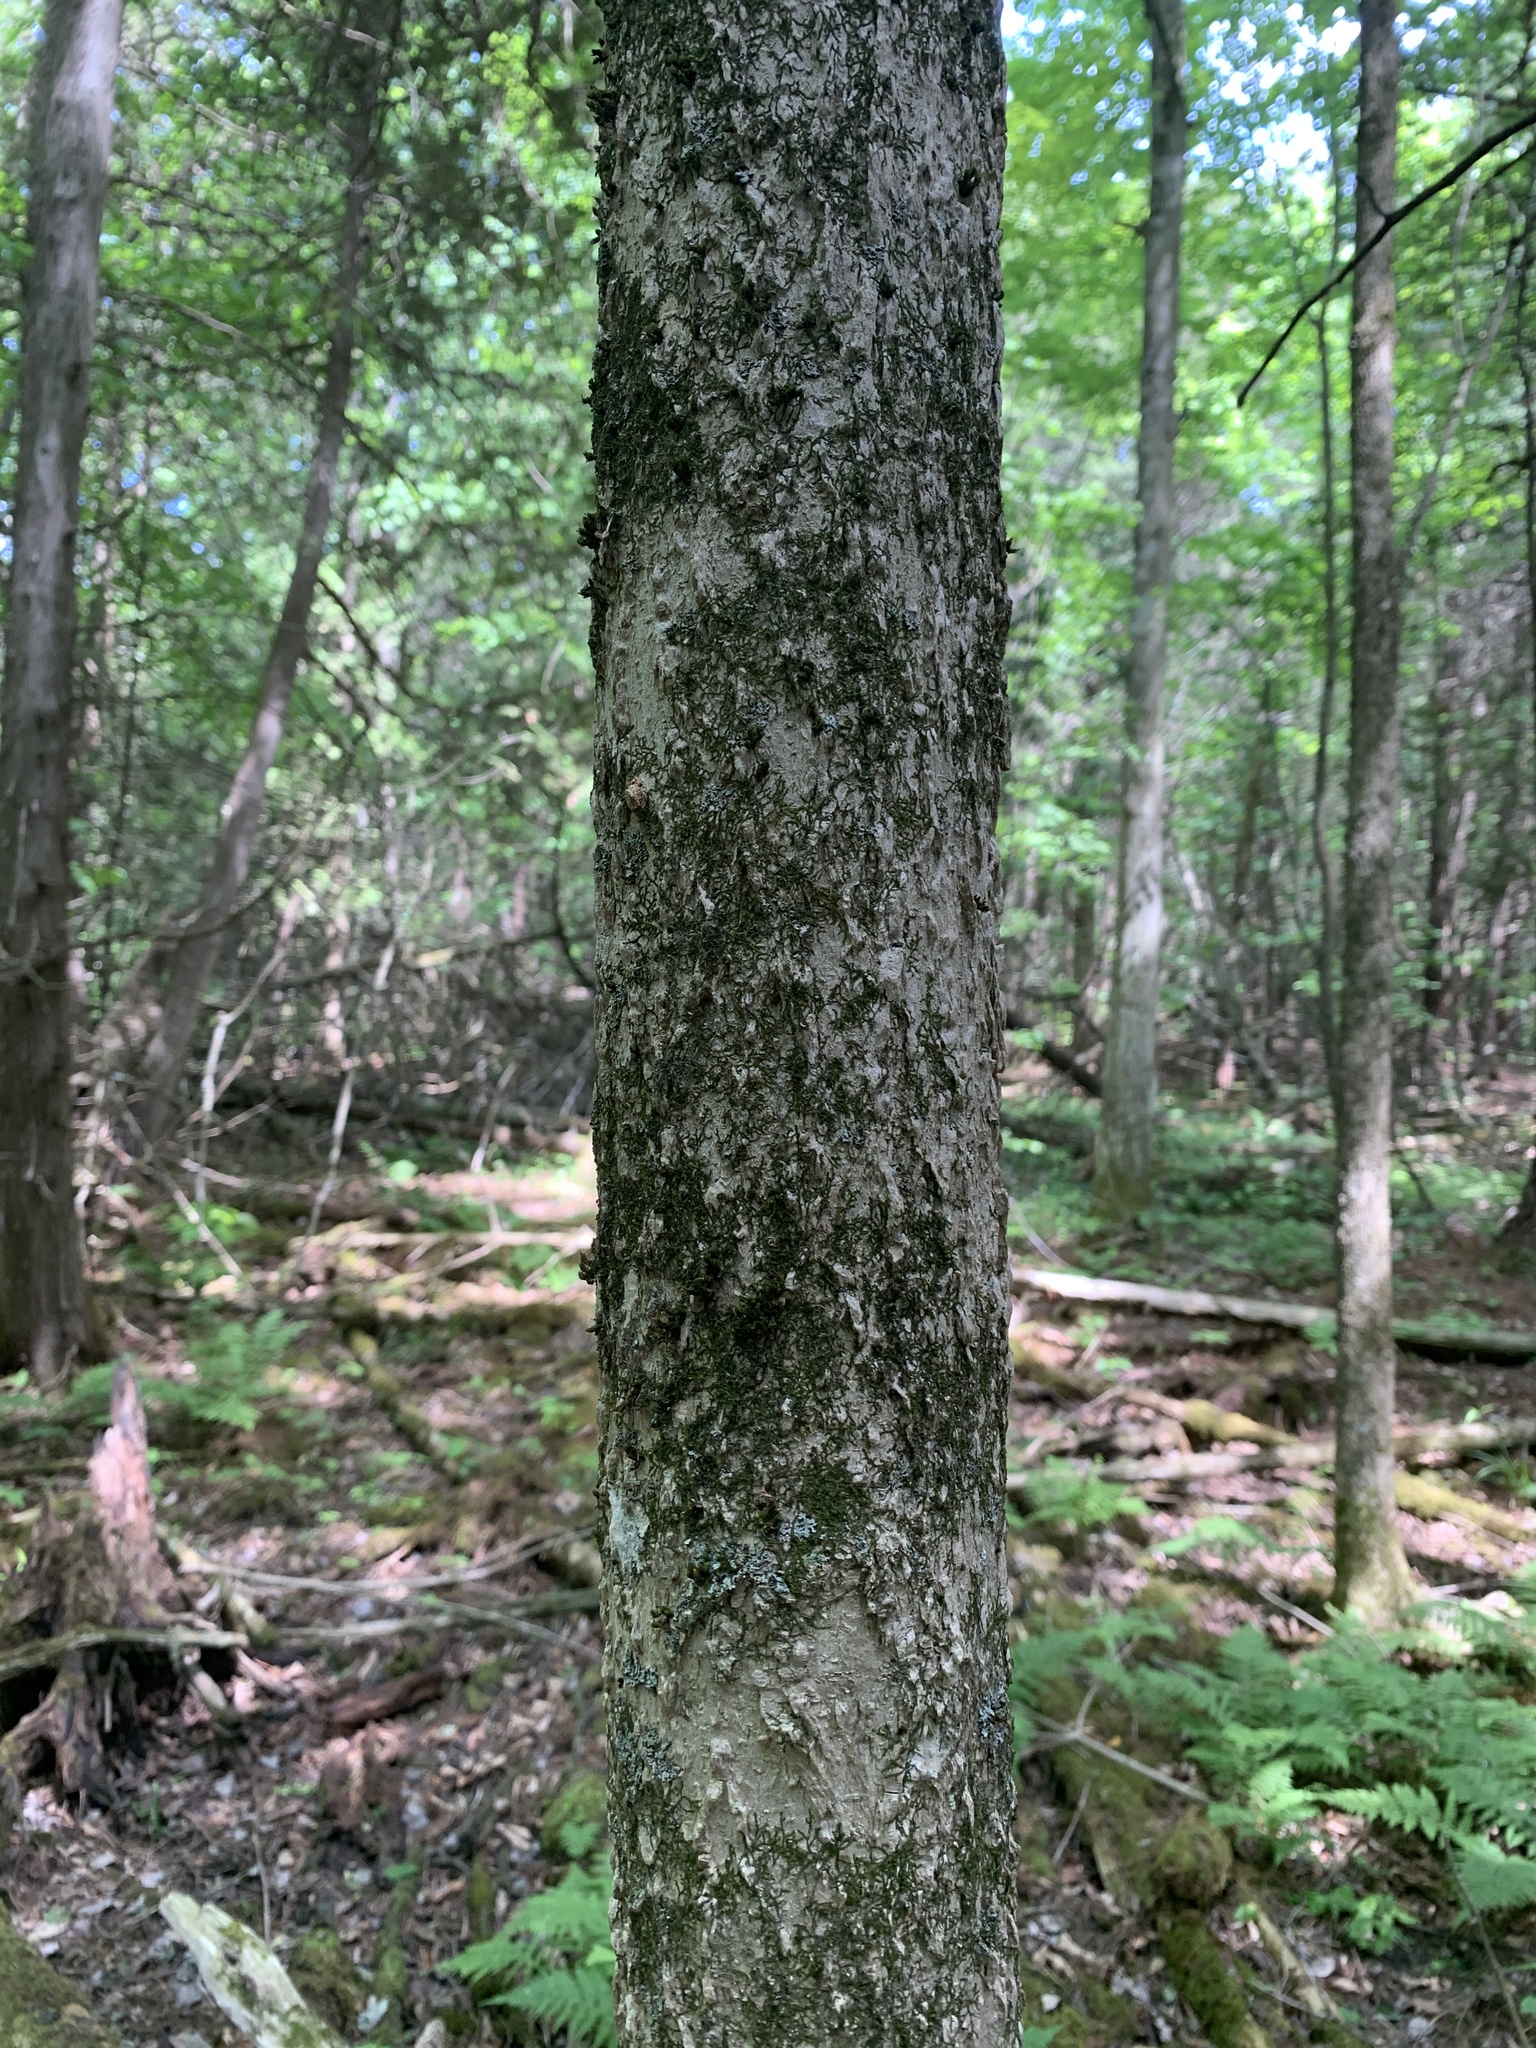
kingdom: Plantae
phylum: Tracheophyta
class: Magnoliopsida
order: Lamiales
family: Oleaceae
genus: Fraxinus
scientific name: Fraxinus nigra
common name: Black ash
